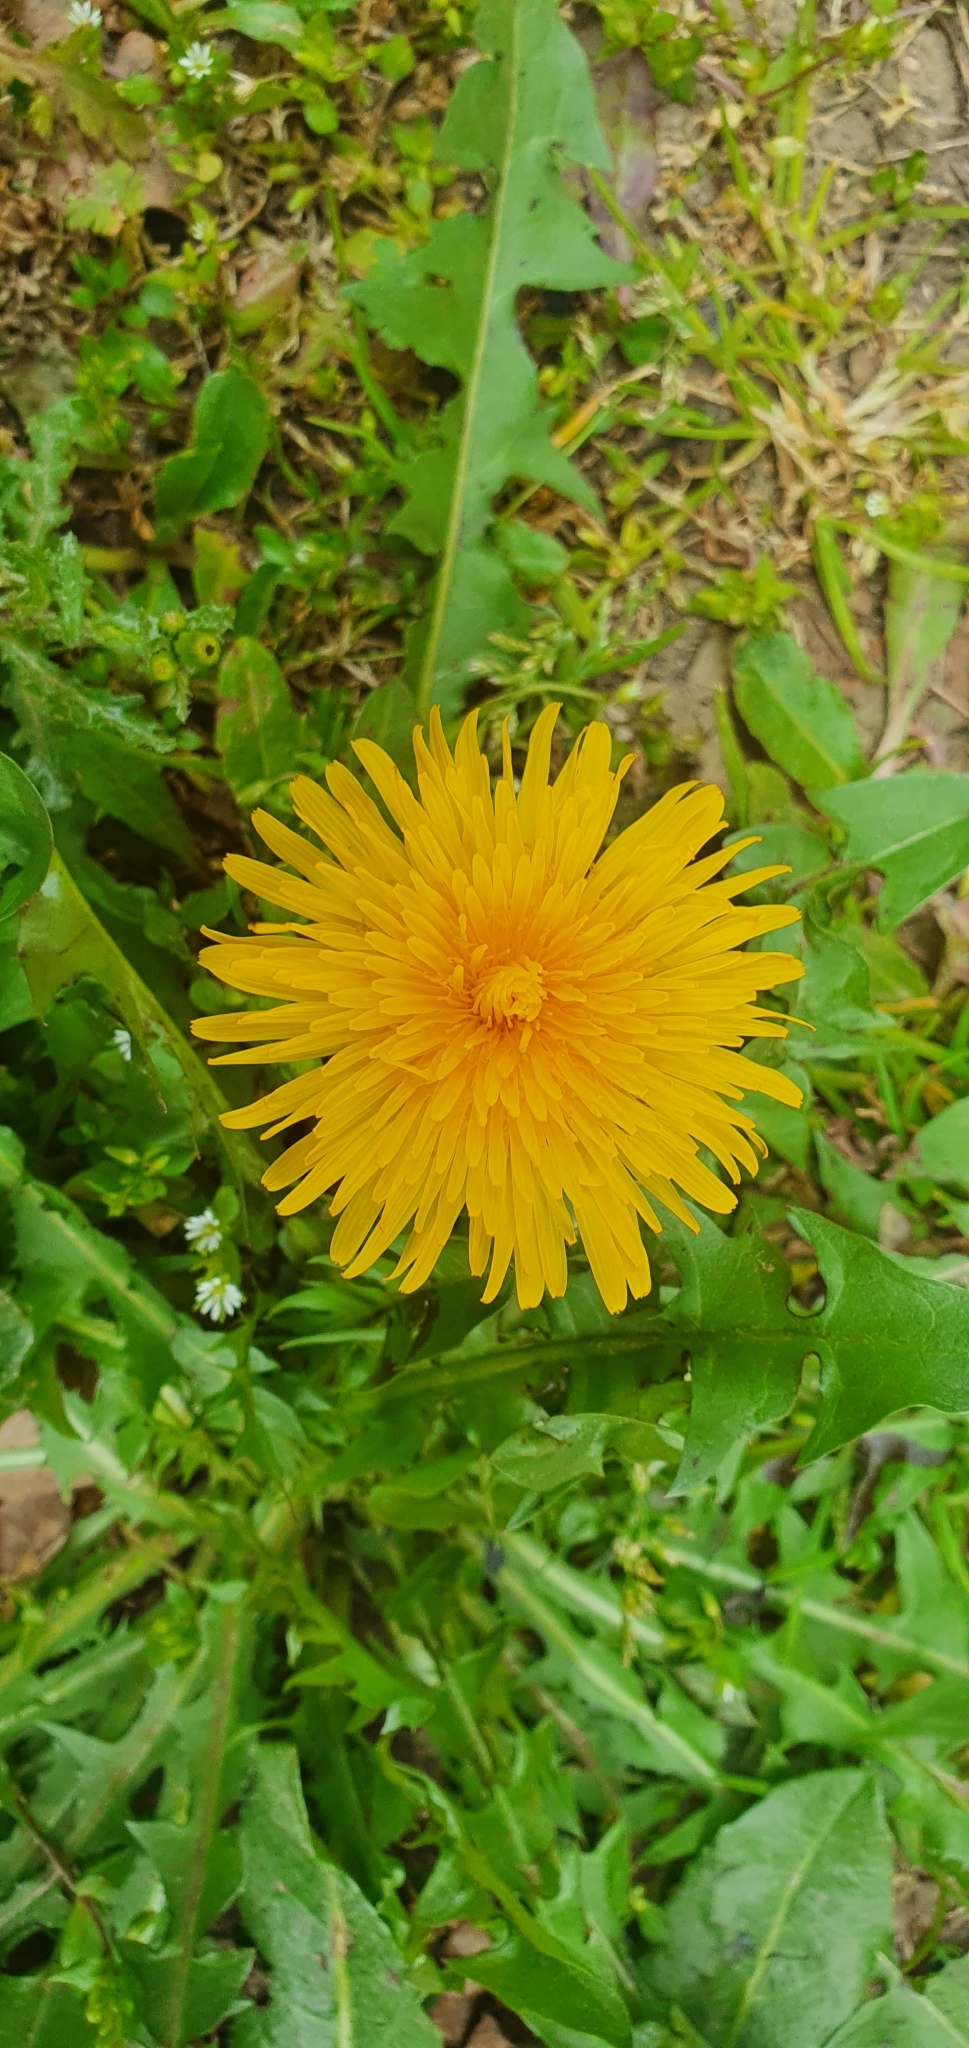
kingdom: Plantae
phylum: Tracheophyta
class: Magnoliopsida
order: Asterales
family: Asteraceae
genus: Taraxacum
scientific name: Taraxacum officinale
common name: Common dandelion
